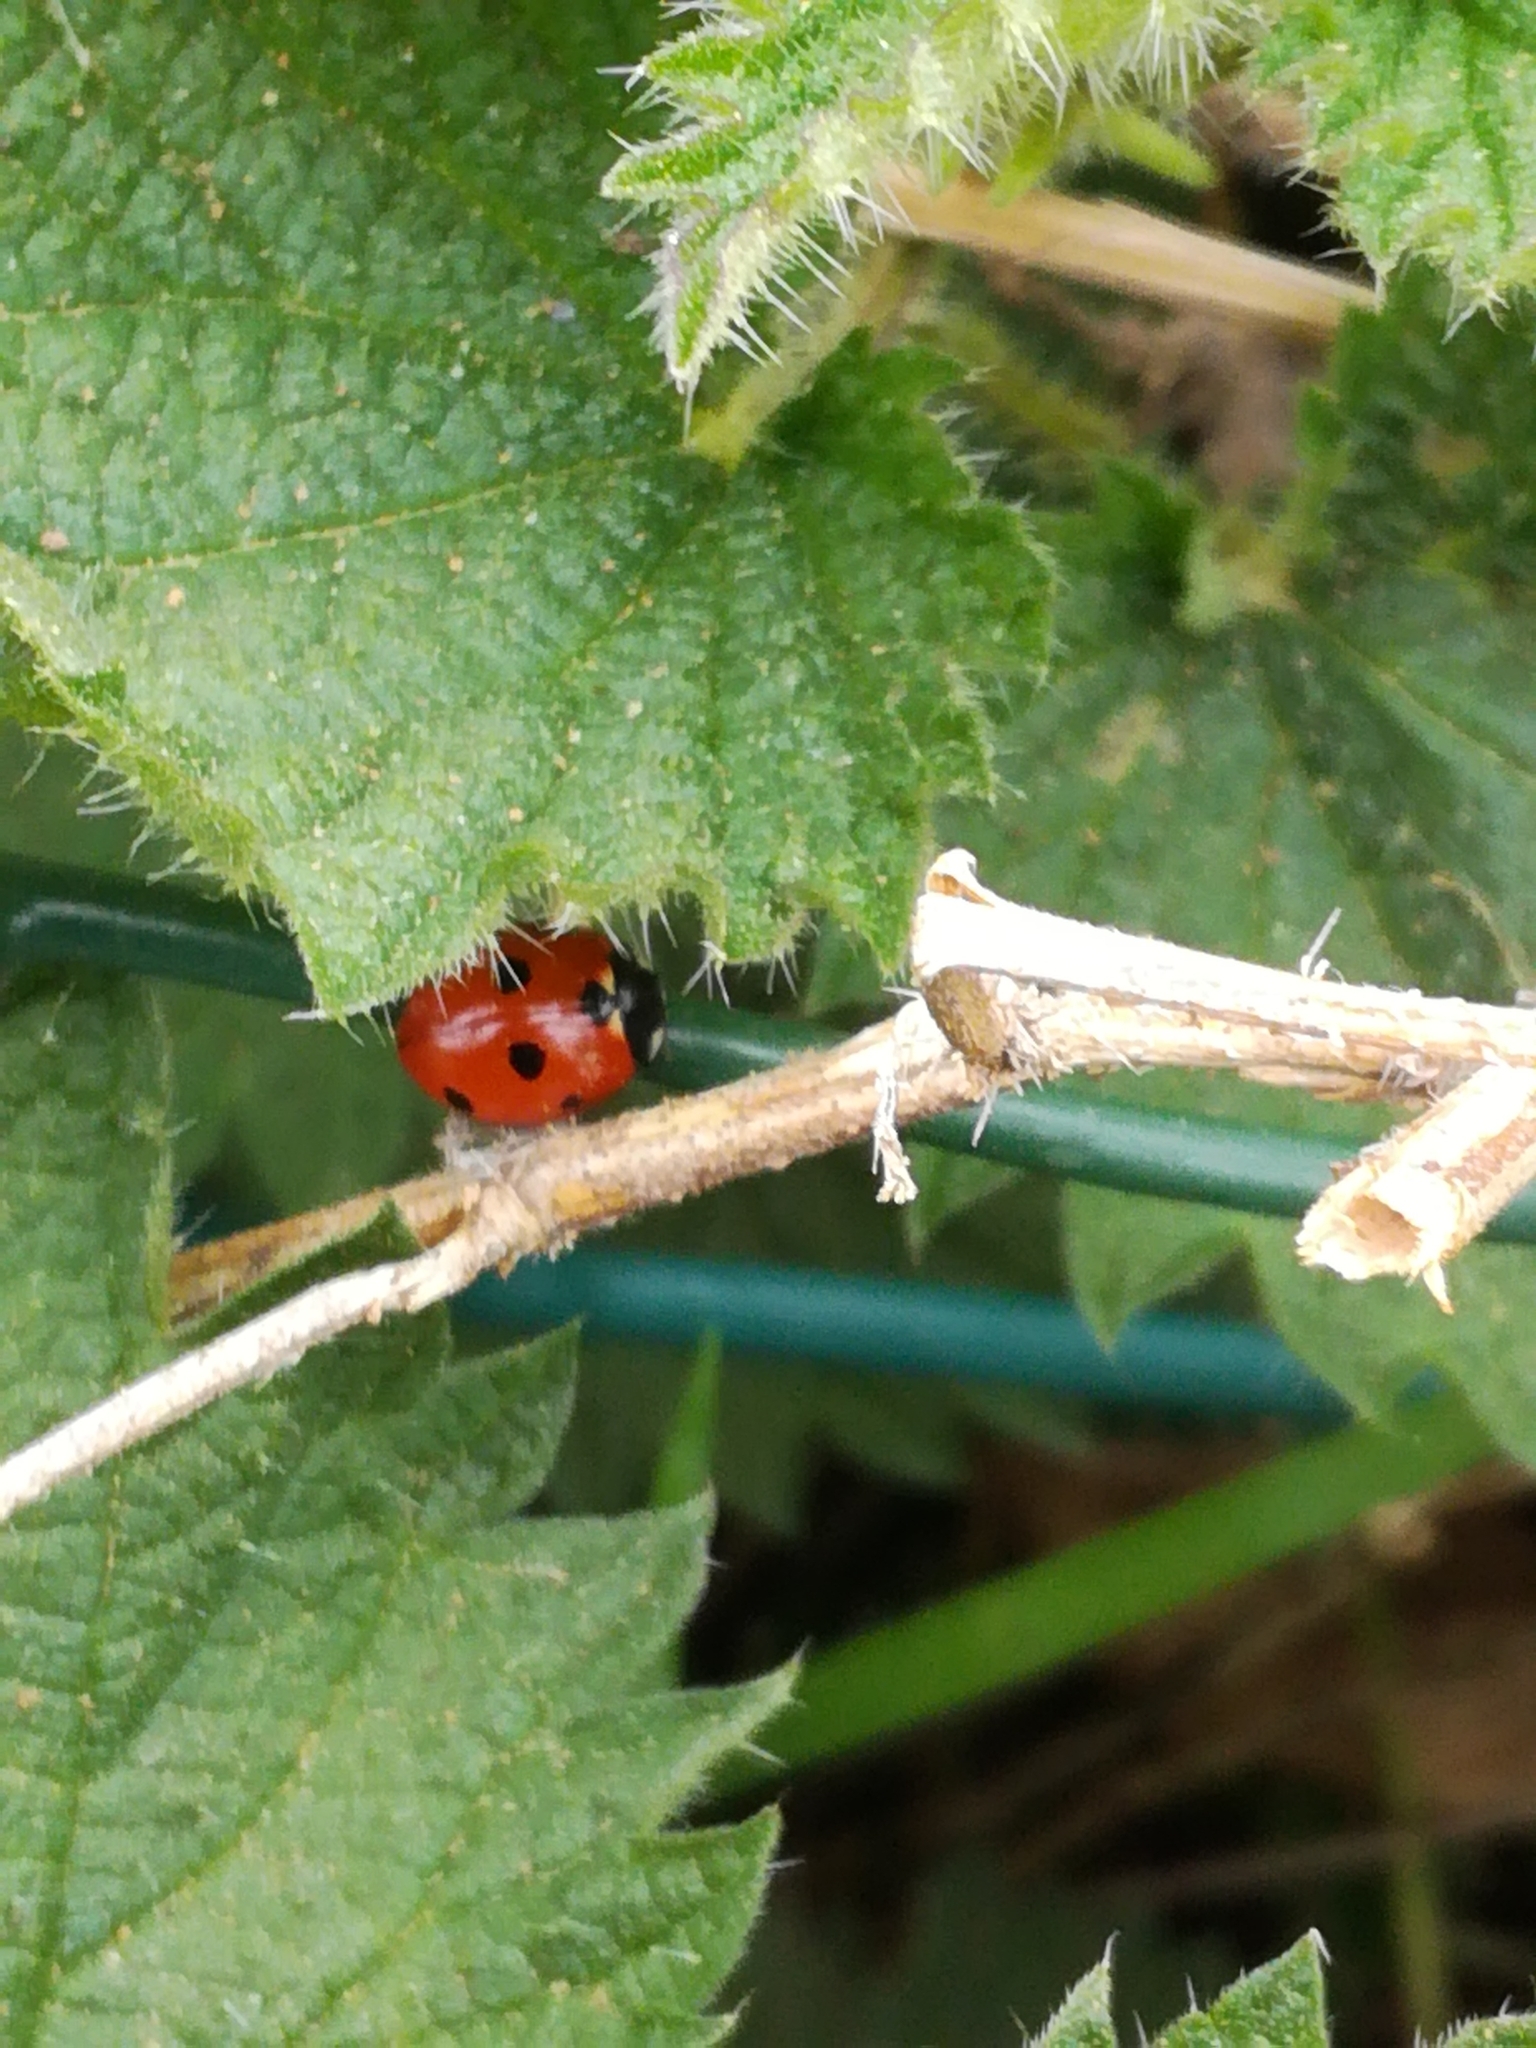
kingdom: Animalia
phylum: Arthropoda
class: Insecta
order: Coleoptera
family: Coccinellidae
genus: Coccinella
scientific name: Coccinella septempunctata
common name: Sevenspotted lady beetle
